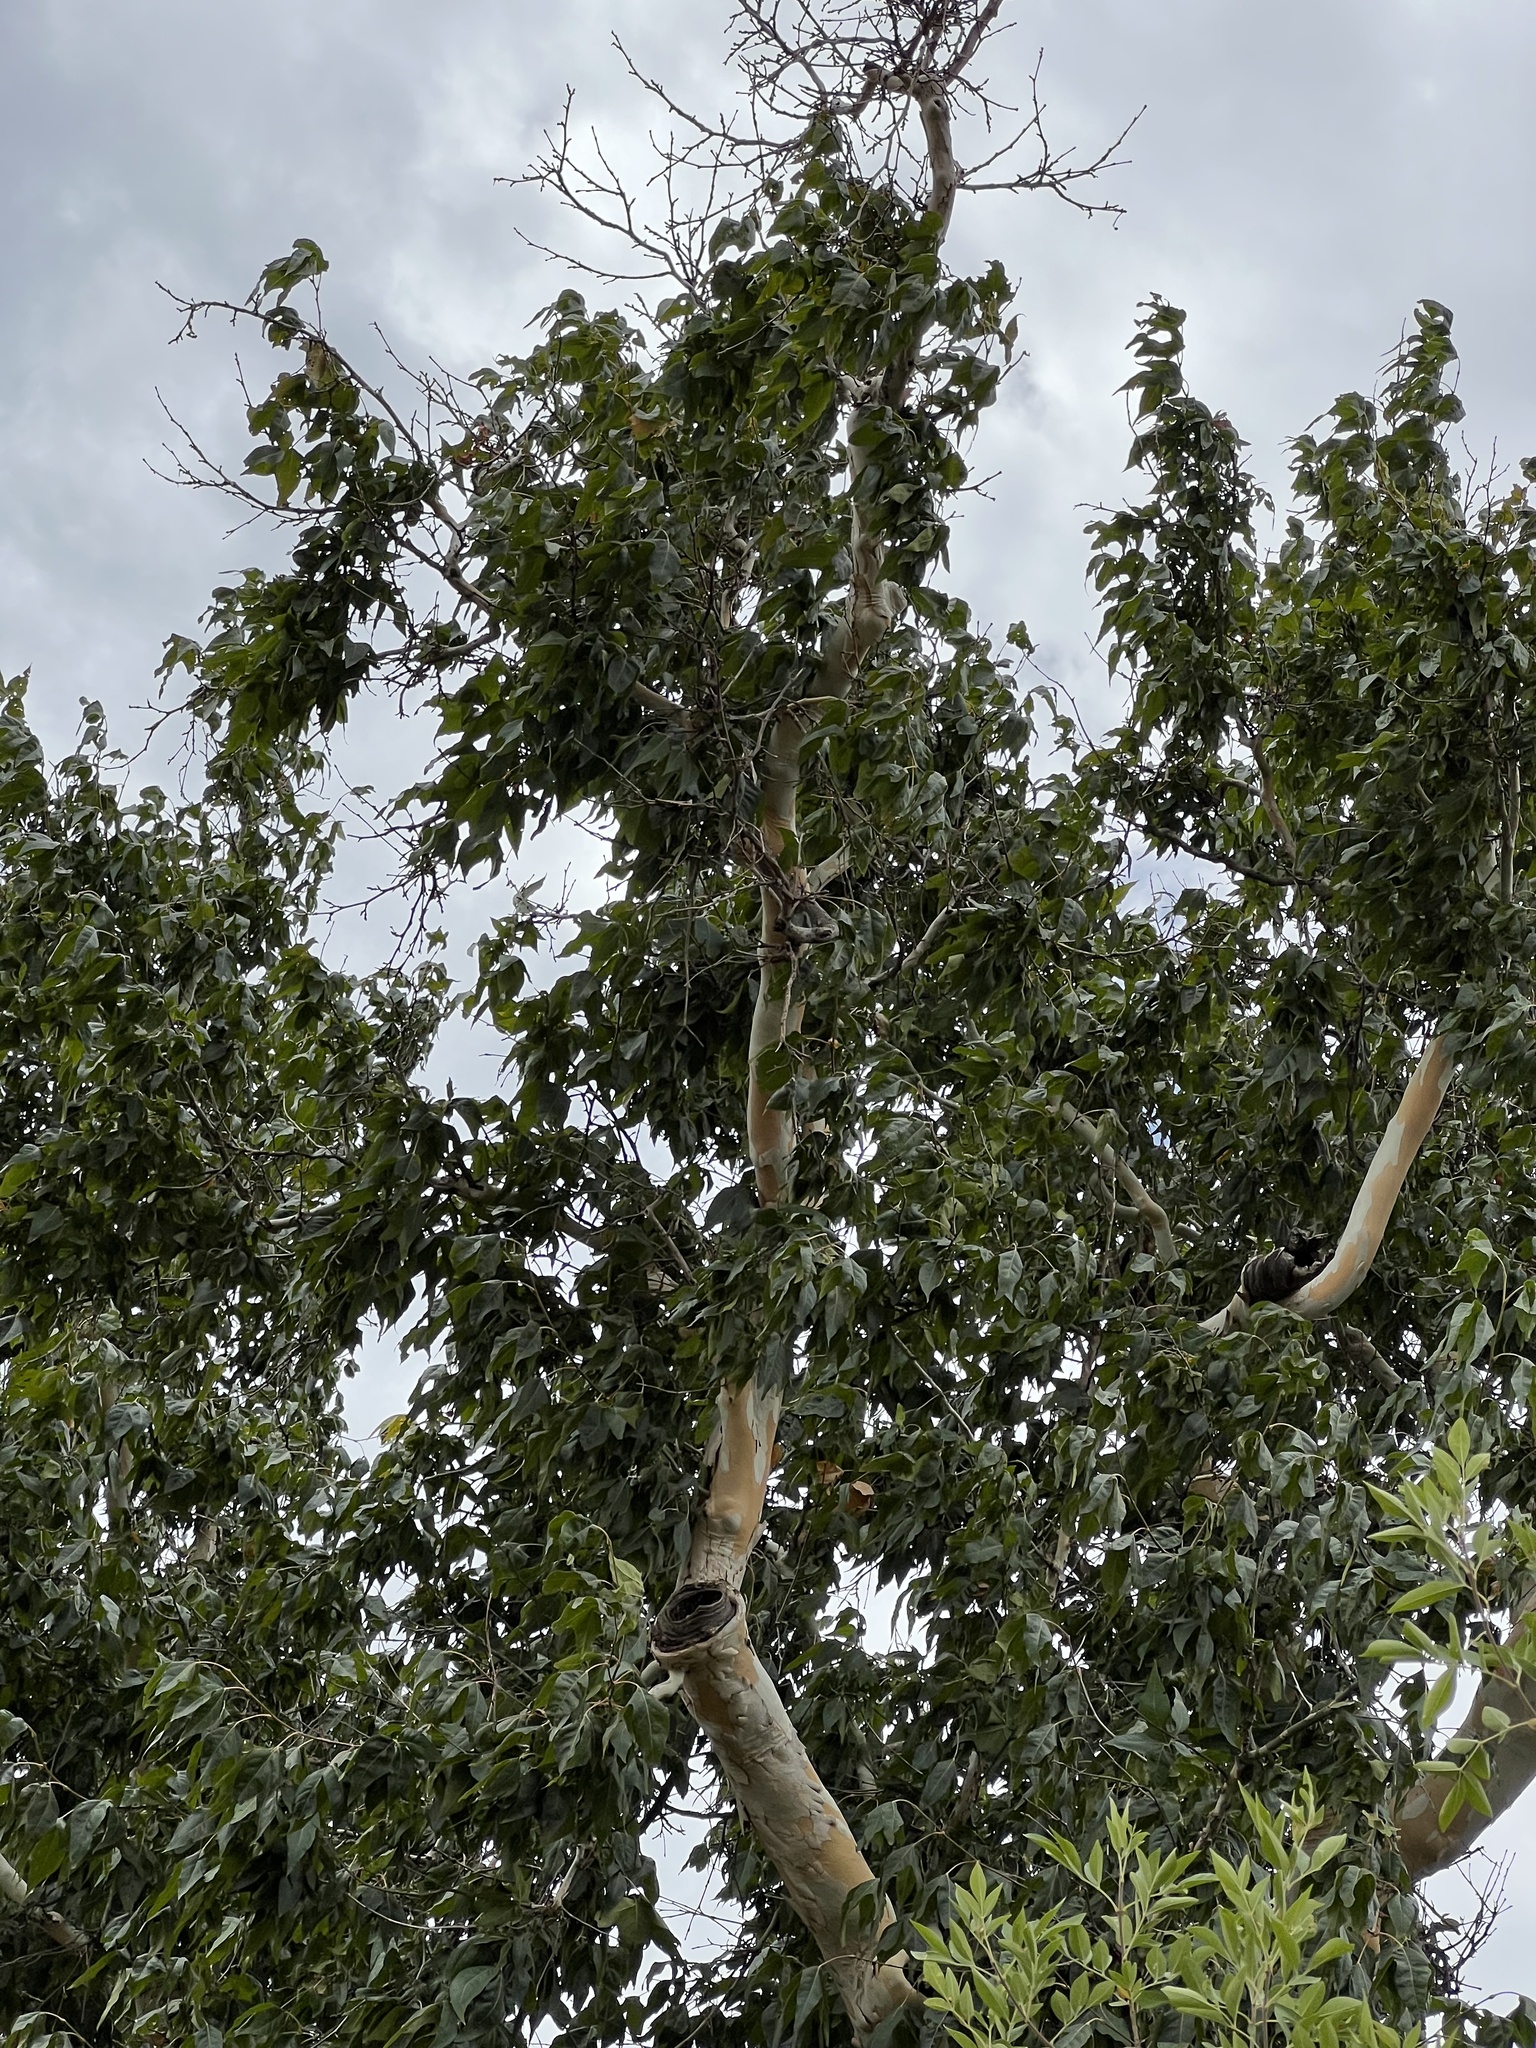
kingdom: Plantae
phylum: Tracheophyta
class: Magnoliopsida
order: Proteales
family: Platanaceae
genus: Platanus
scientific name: Platanus wrightii
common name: Arizona sycamore
